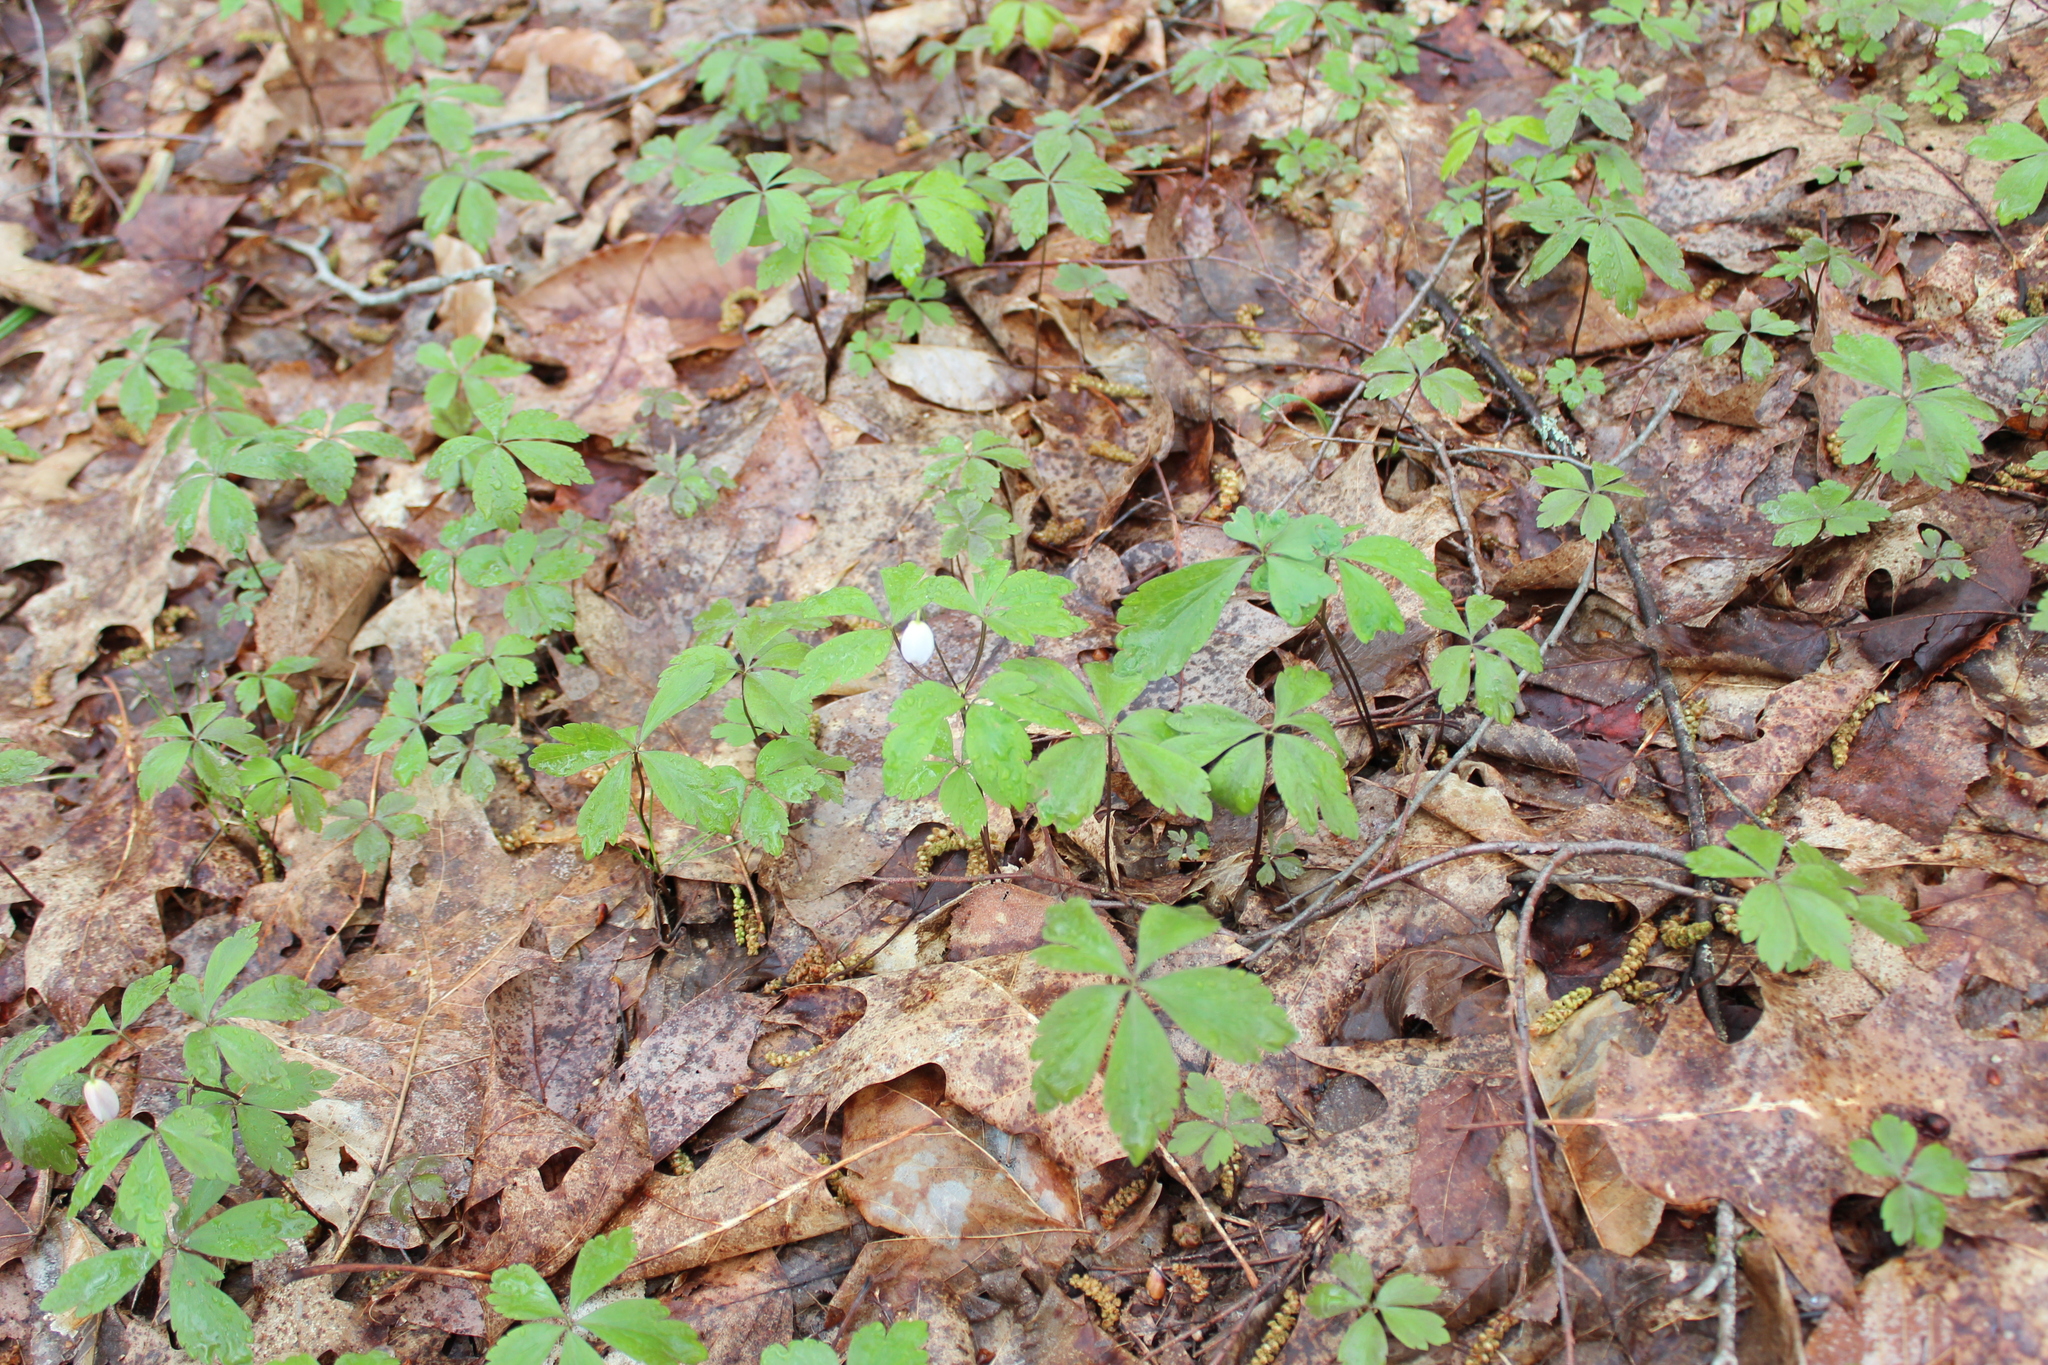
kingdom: Plantae
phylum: Tracheophyta
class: Magnoliopsida
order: Ranunculales
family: Ranunculaceae
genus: Anemone
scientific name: Anemone quinquefolia
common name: Wood anemone
